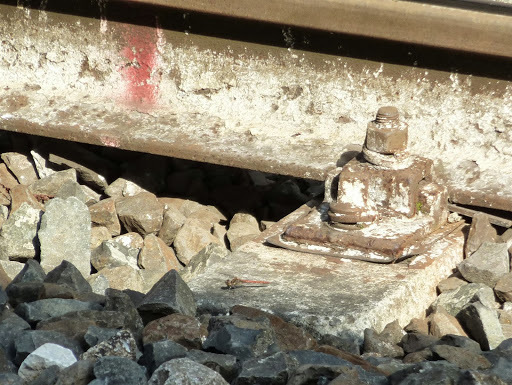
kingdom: Animalia
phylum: Arthropoda
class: Insecta
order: Odonata
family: Libellulidae
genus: Sympetrum
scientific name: Sympetrum striolatum
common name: Common darter
